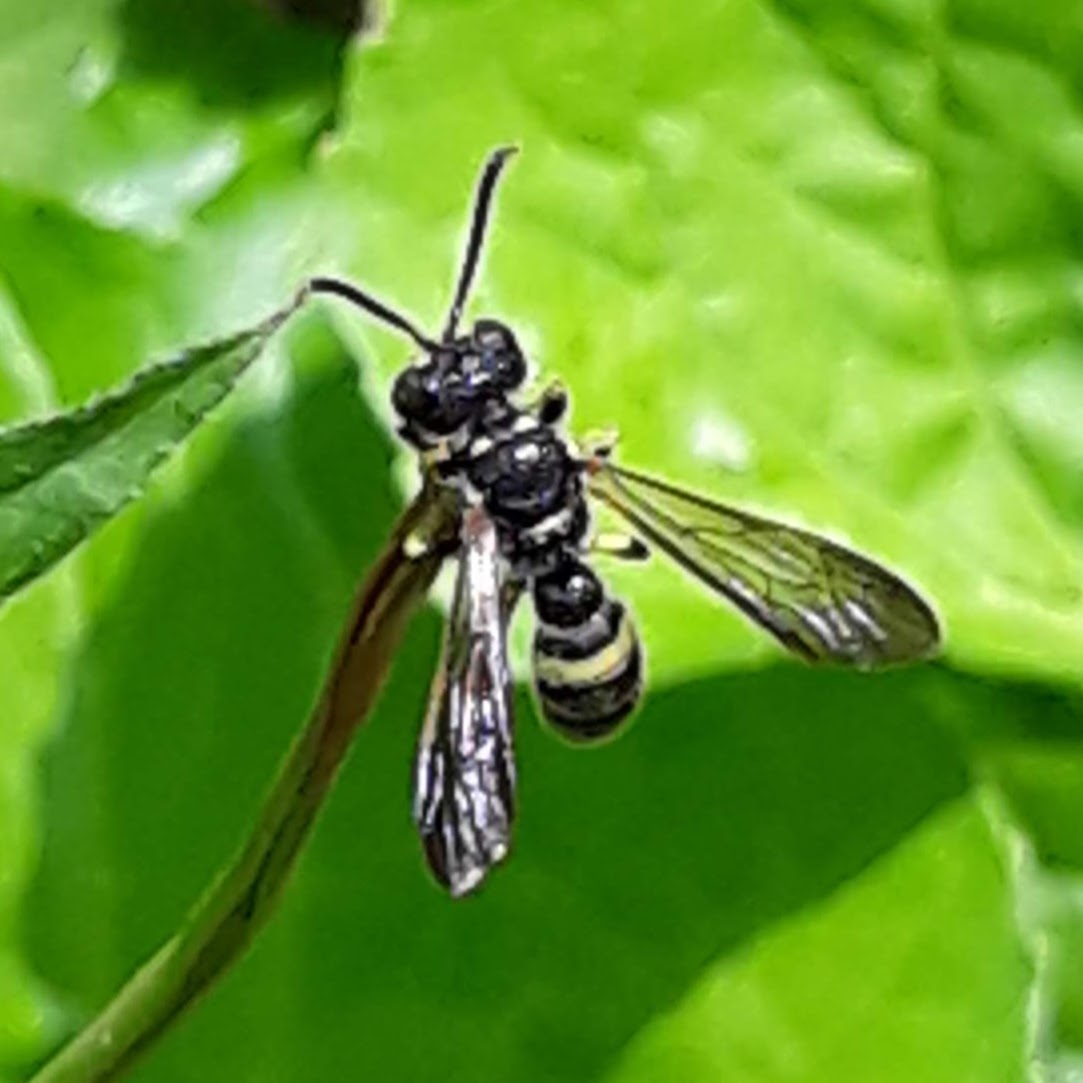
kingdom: Animalia
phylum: Arthropoda
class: Insecta
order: Hymenoptera
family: Crabronidae
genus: Cerceris
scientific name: Cerceris fumipennis
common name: Smokey-winged beetle bandit wasp
